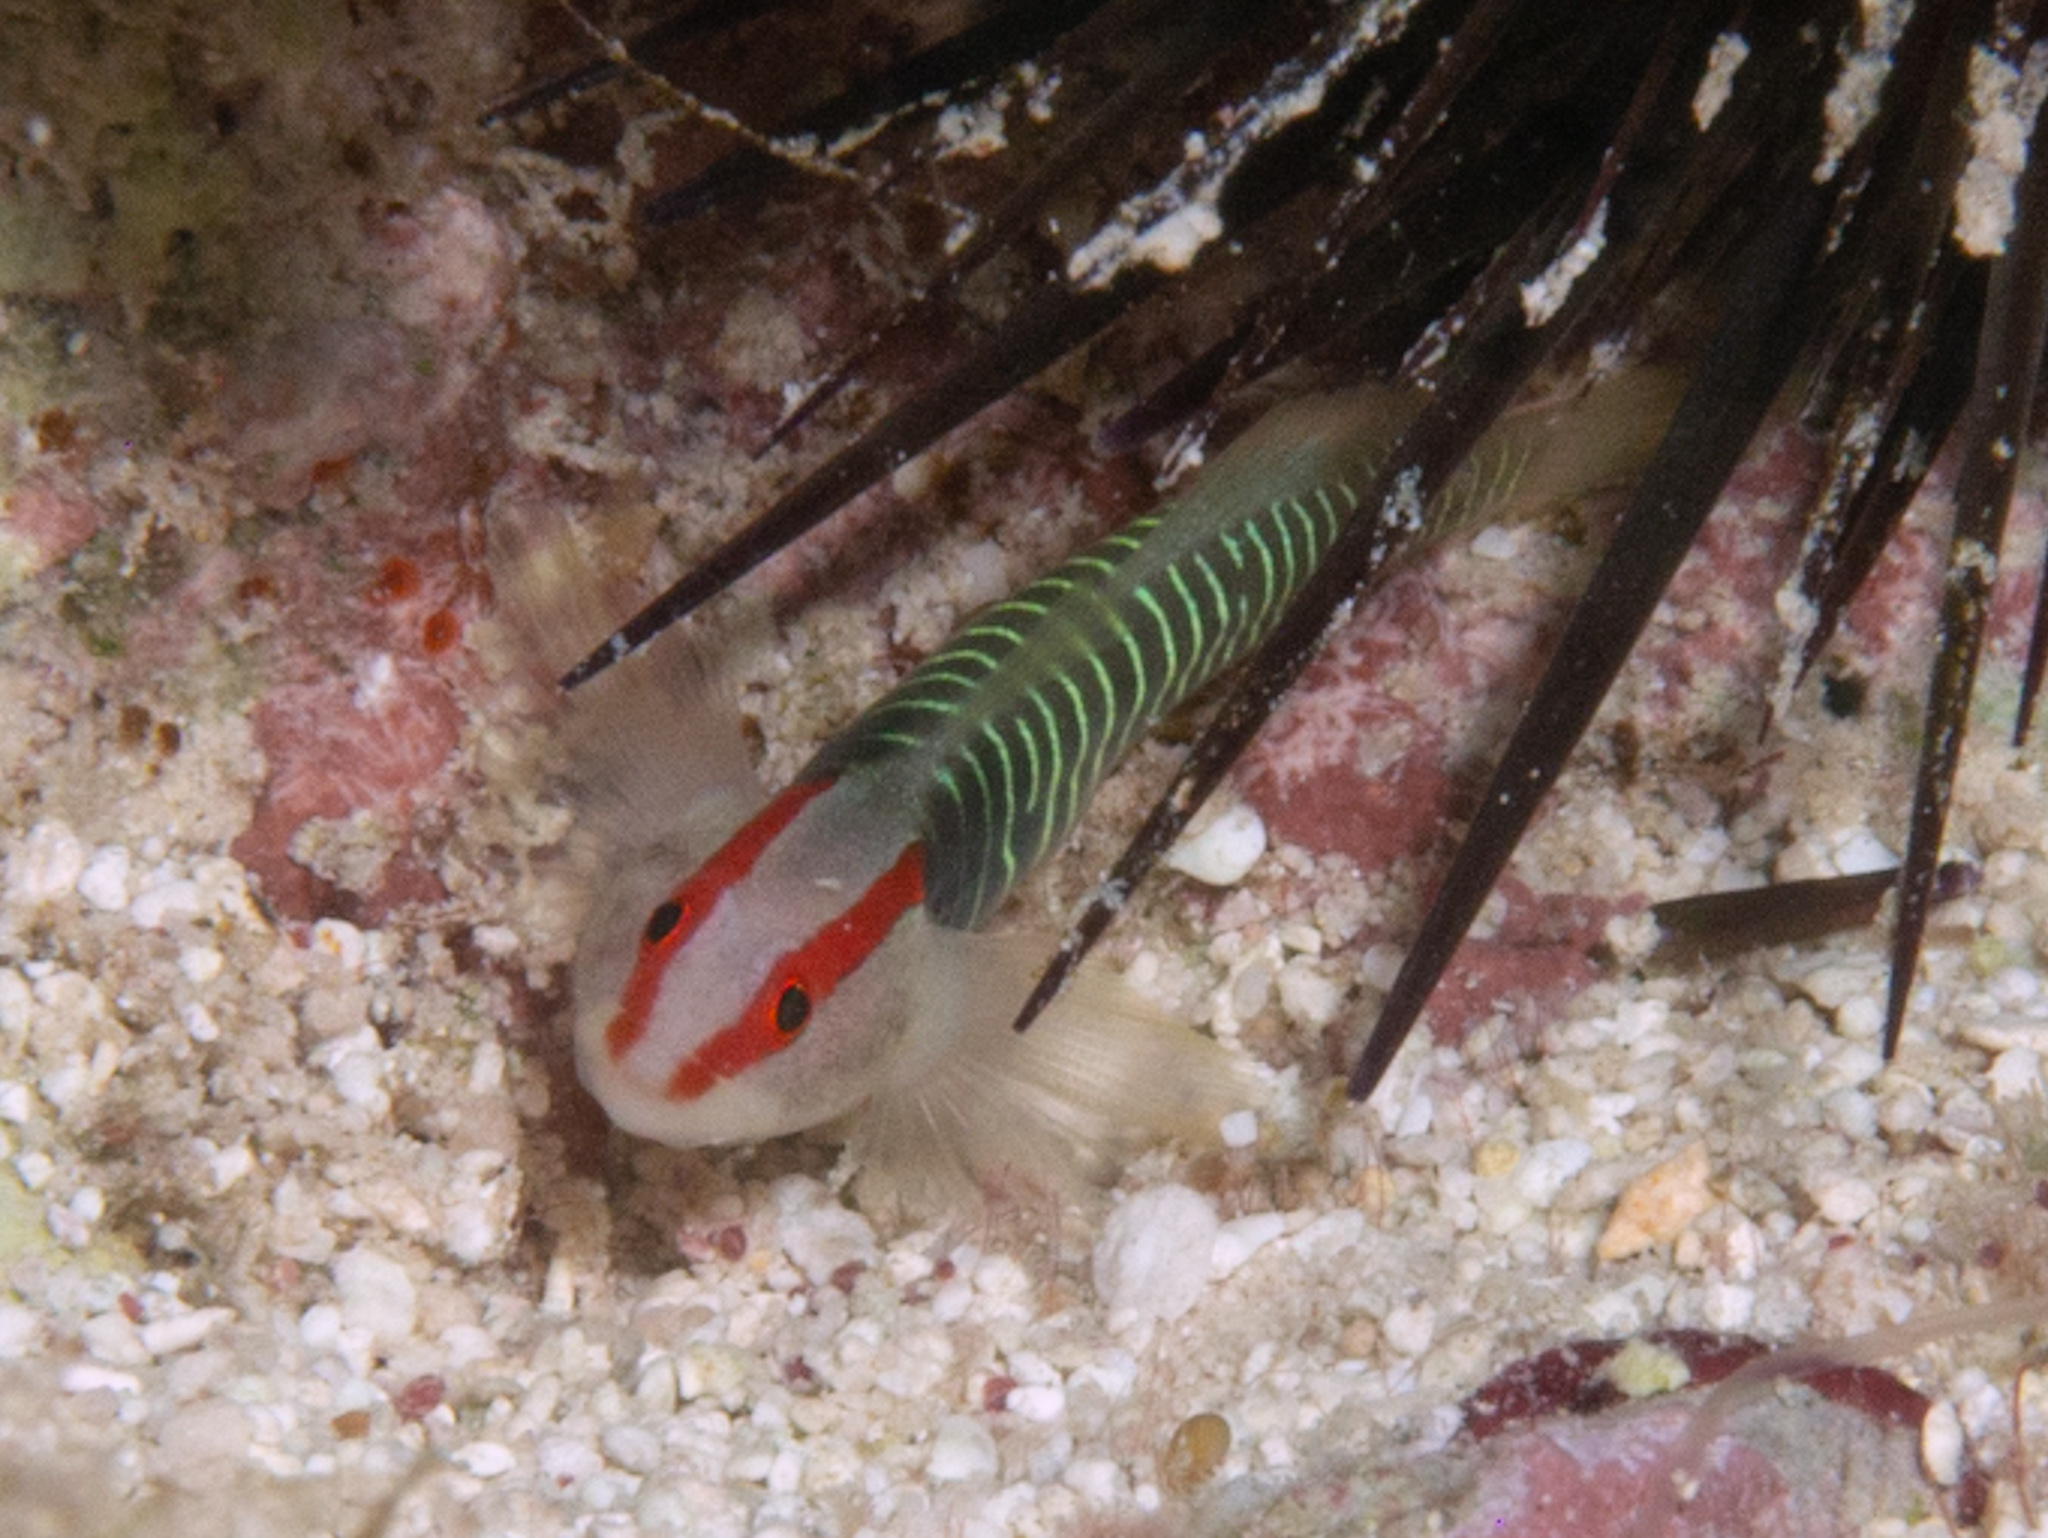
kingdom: Animalia
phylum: Chordata
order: Perciformes
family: Gobiidae
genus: Tigrigobius
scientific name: Tigrigobius harveyi
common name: Cayman greenbanded goby
